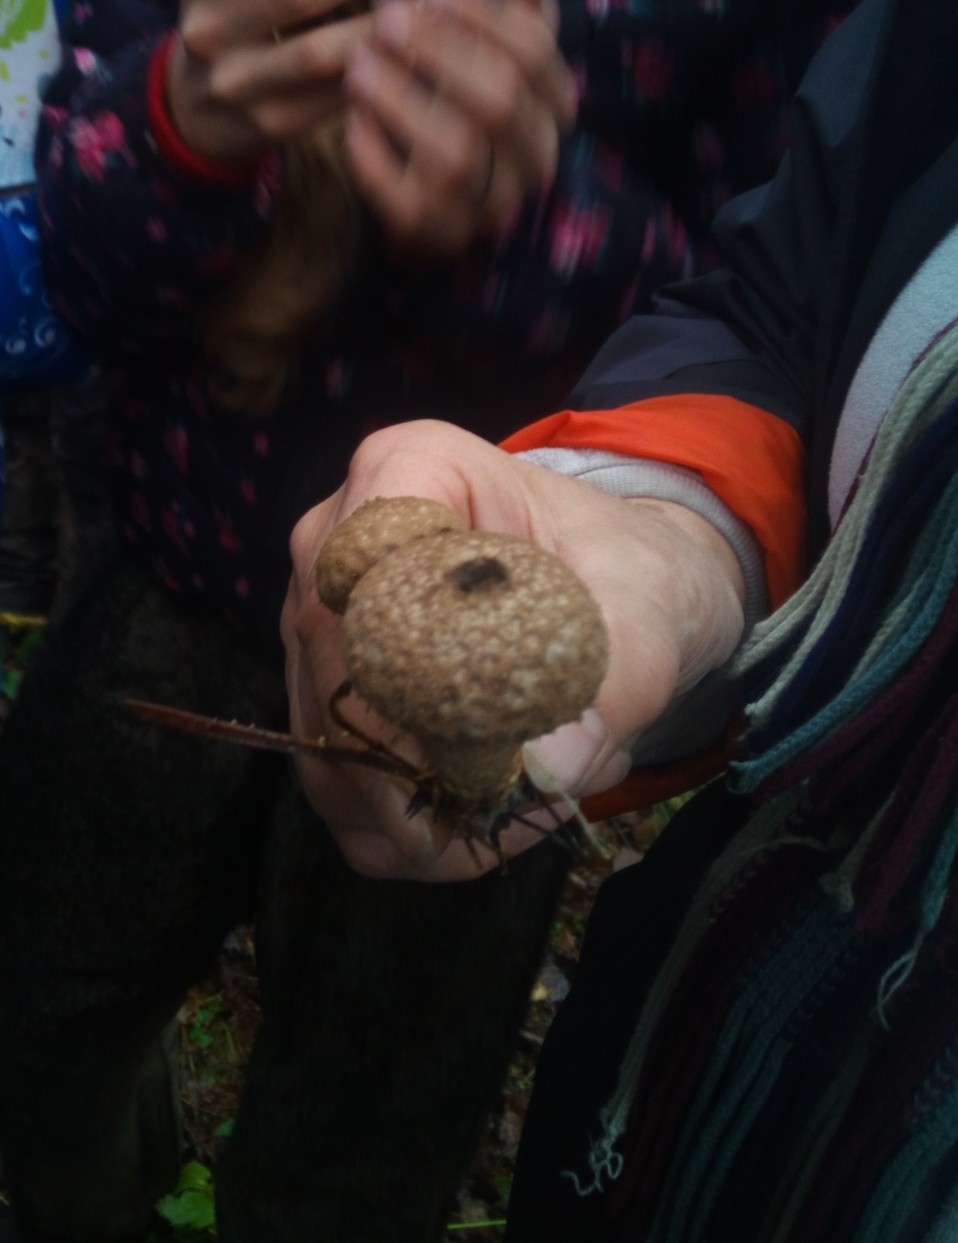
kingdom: Fungi
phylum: Basidiomycota
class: Agaricomycetes
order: Agaricales
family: Lycoperdaceae
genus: Lycoperdon
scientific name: Lycoperdon perlatum
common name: Common puffball
